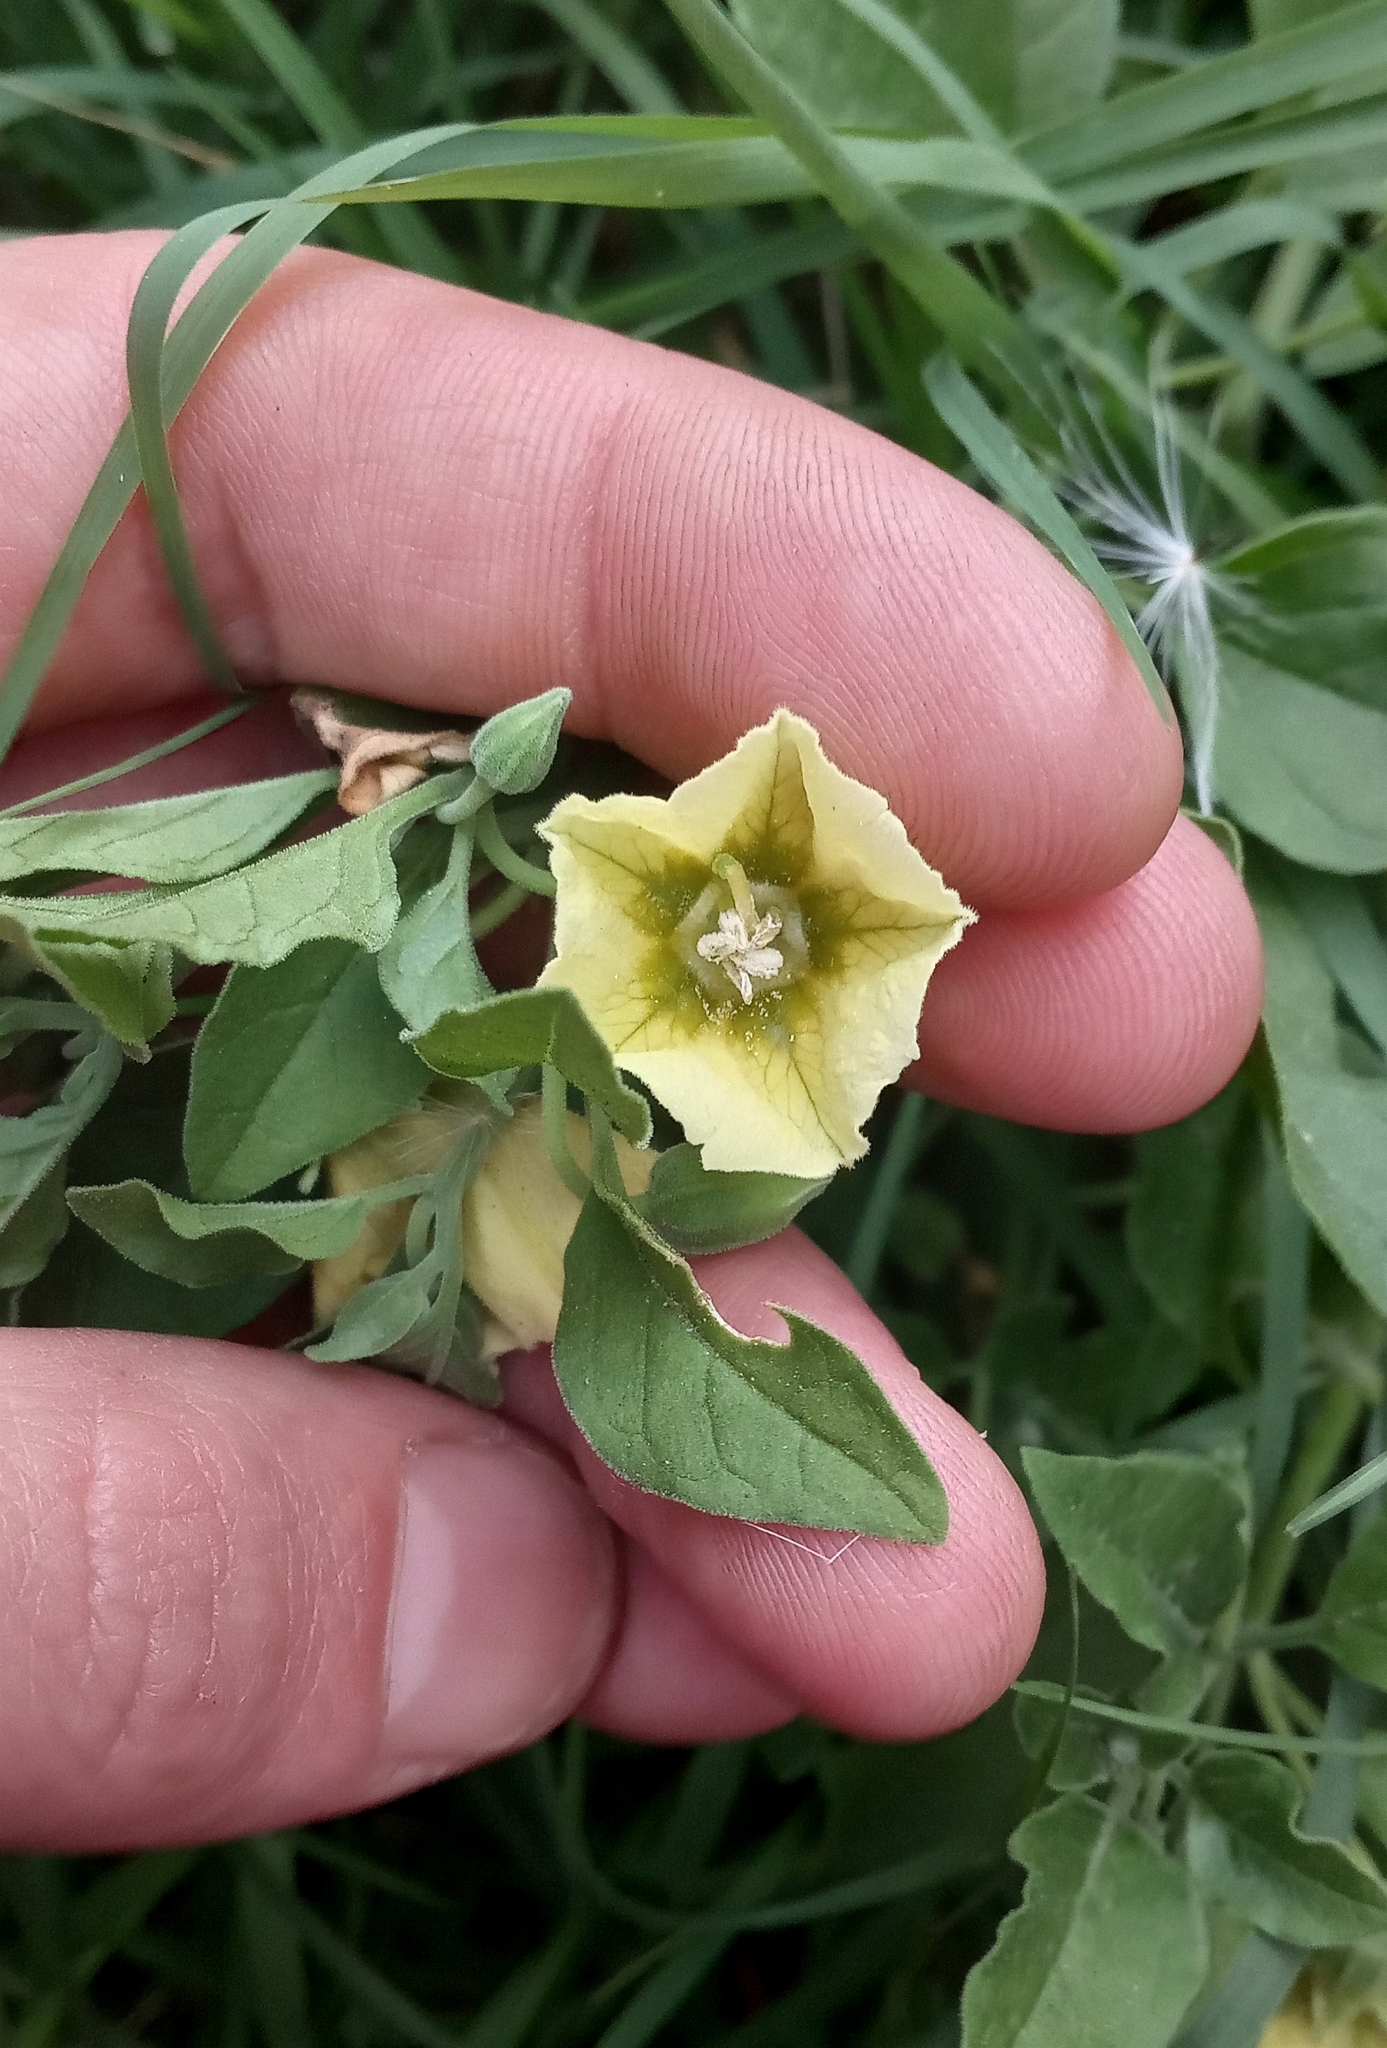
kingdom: Plantae
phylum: Tracheophyta
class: Magnoliopsida
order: Solanales
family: Solanaceae
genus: Physalis
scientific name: Physalis viscosa
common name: Stellate ground-cherry
